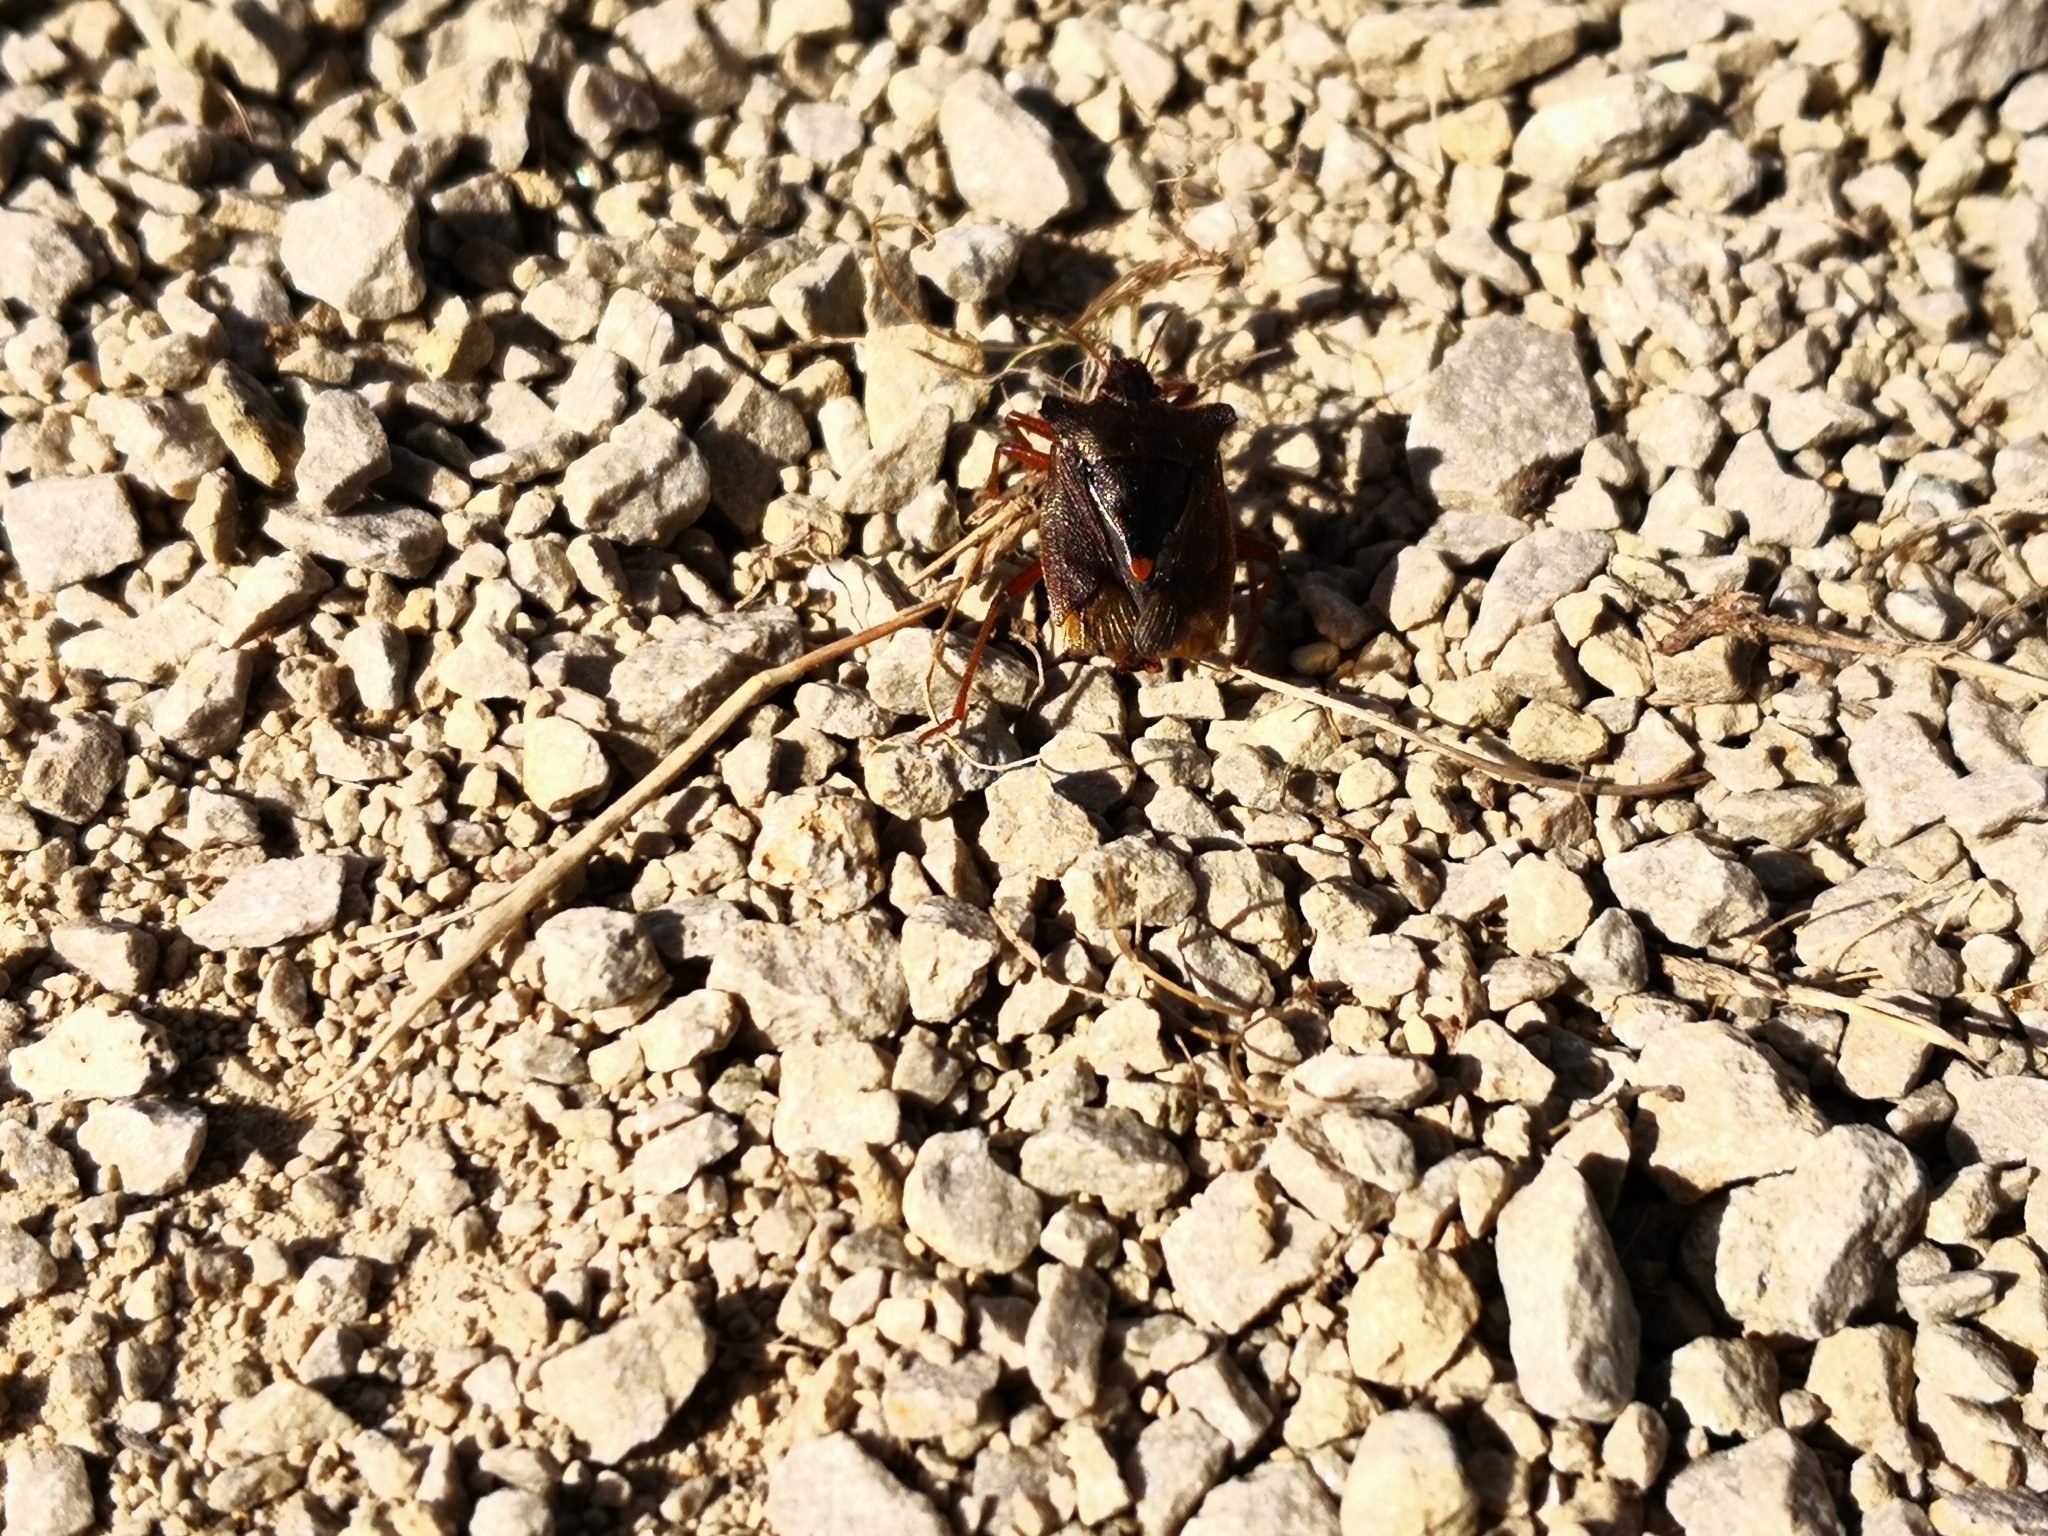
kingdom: Animalia
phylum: Arthropoda
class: Insecta
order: Hemiptera
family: Pentatomidae
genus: Pentatoma
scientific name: Pentatoma rufipes
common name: Forest bug
